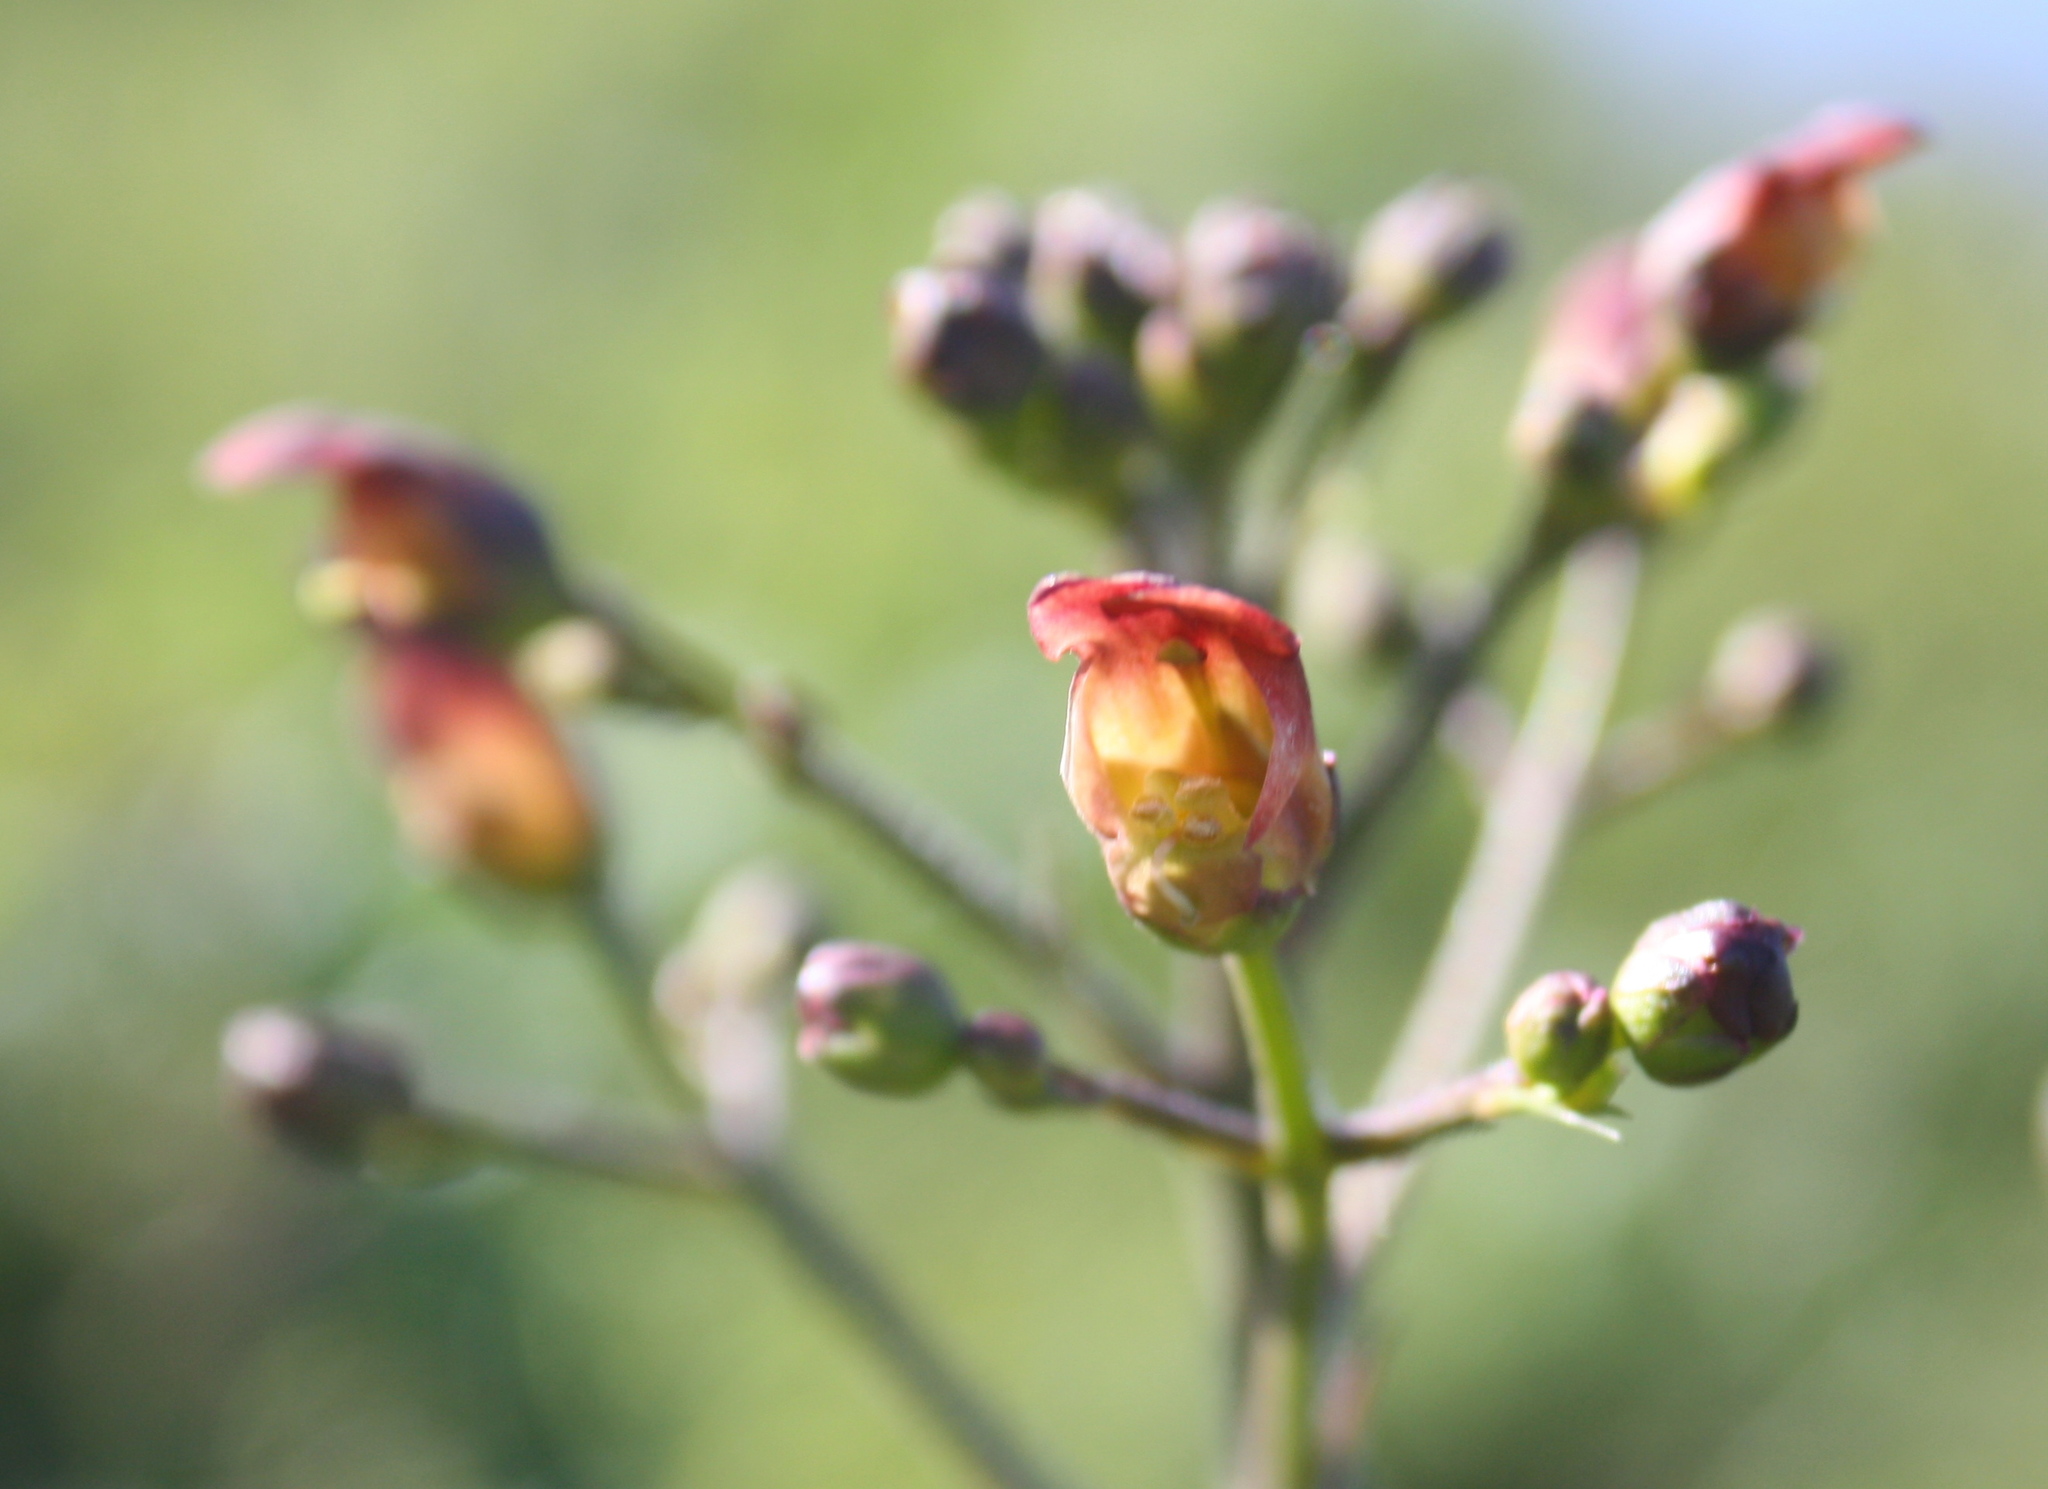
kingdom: Plantae
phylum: Tracheophyta
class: Magnoliopsida
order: Lamiales
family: Scrophulariaceae
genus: Scrophularia
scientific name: Scrophularia californica
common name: California figwort
